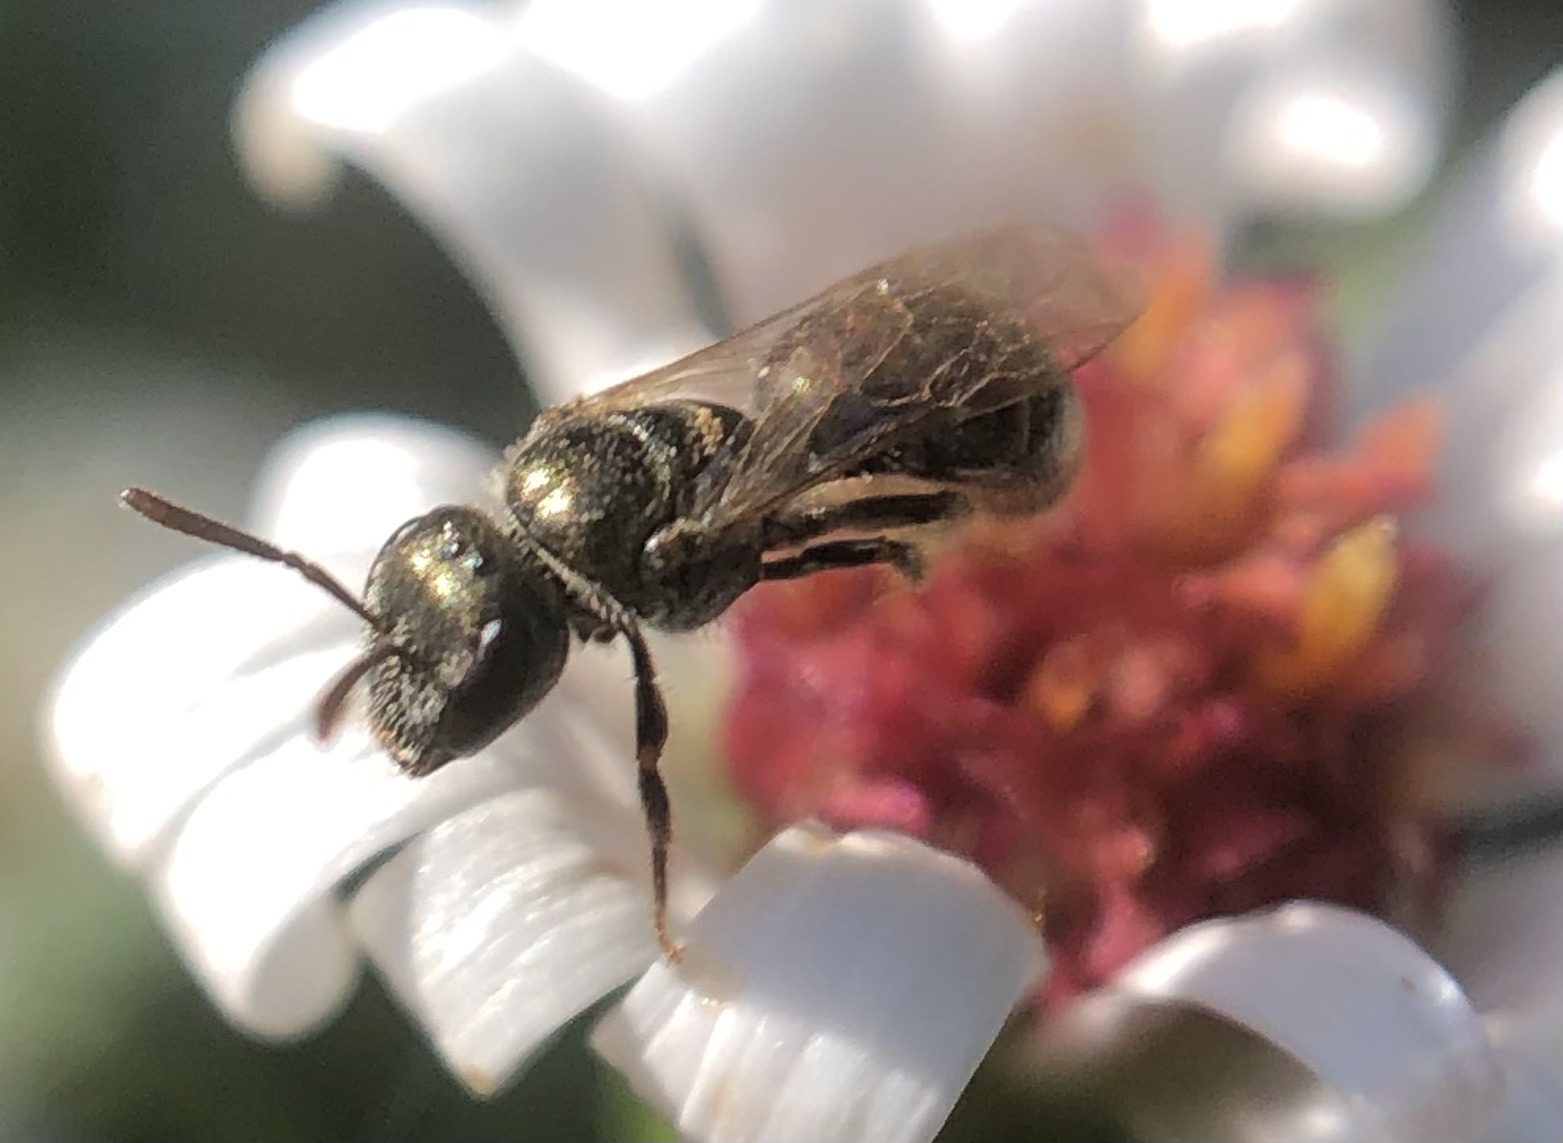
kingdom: Animalia
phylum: Arthropoda
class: Insecta
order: Hymenoptera
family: Halictidae
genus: Lasioglossum
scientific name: Lasioglossum imitatum
